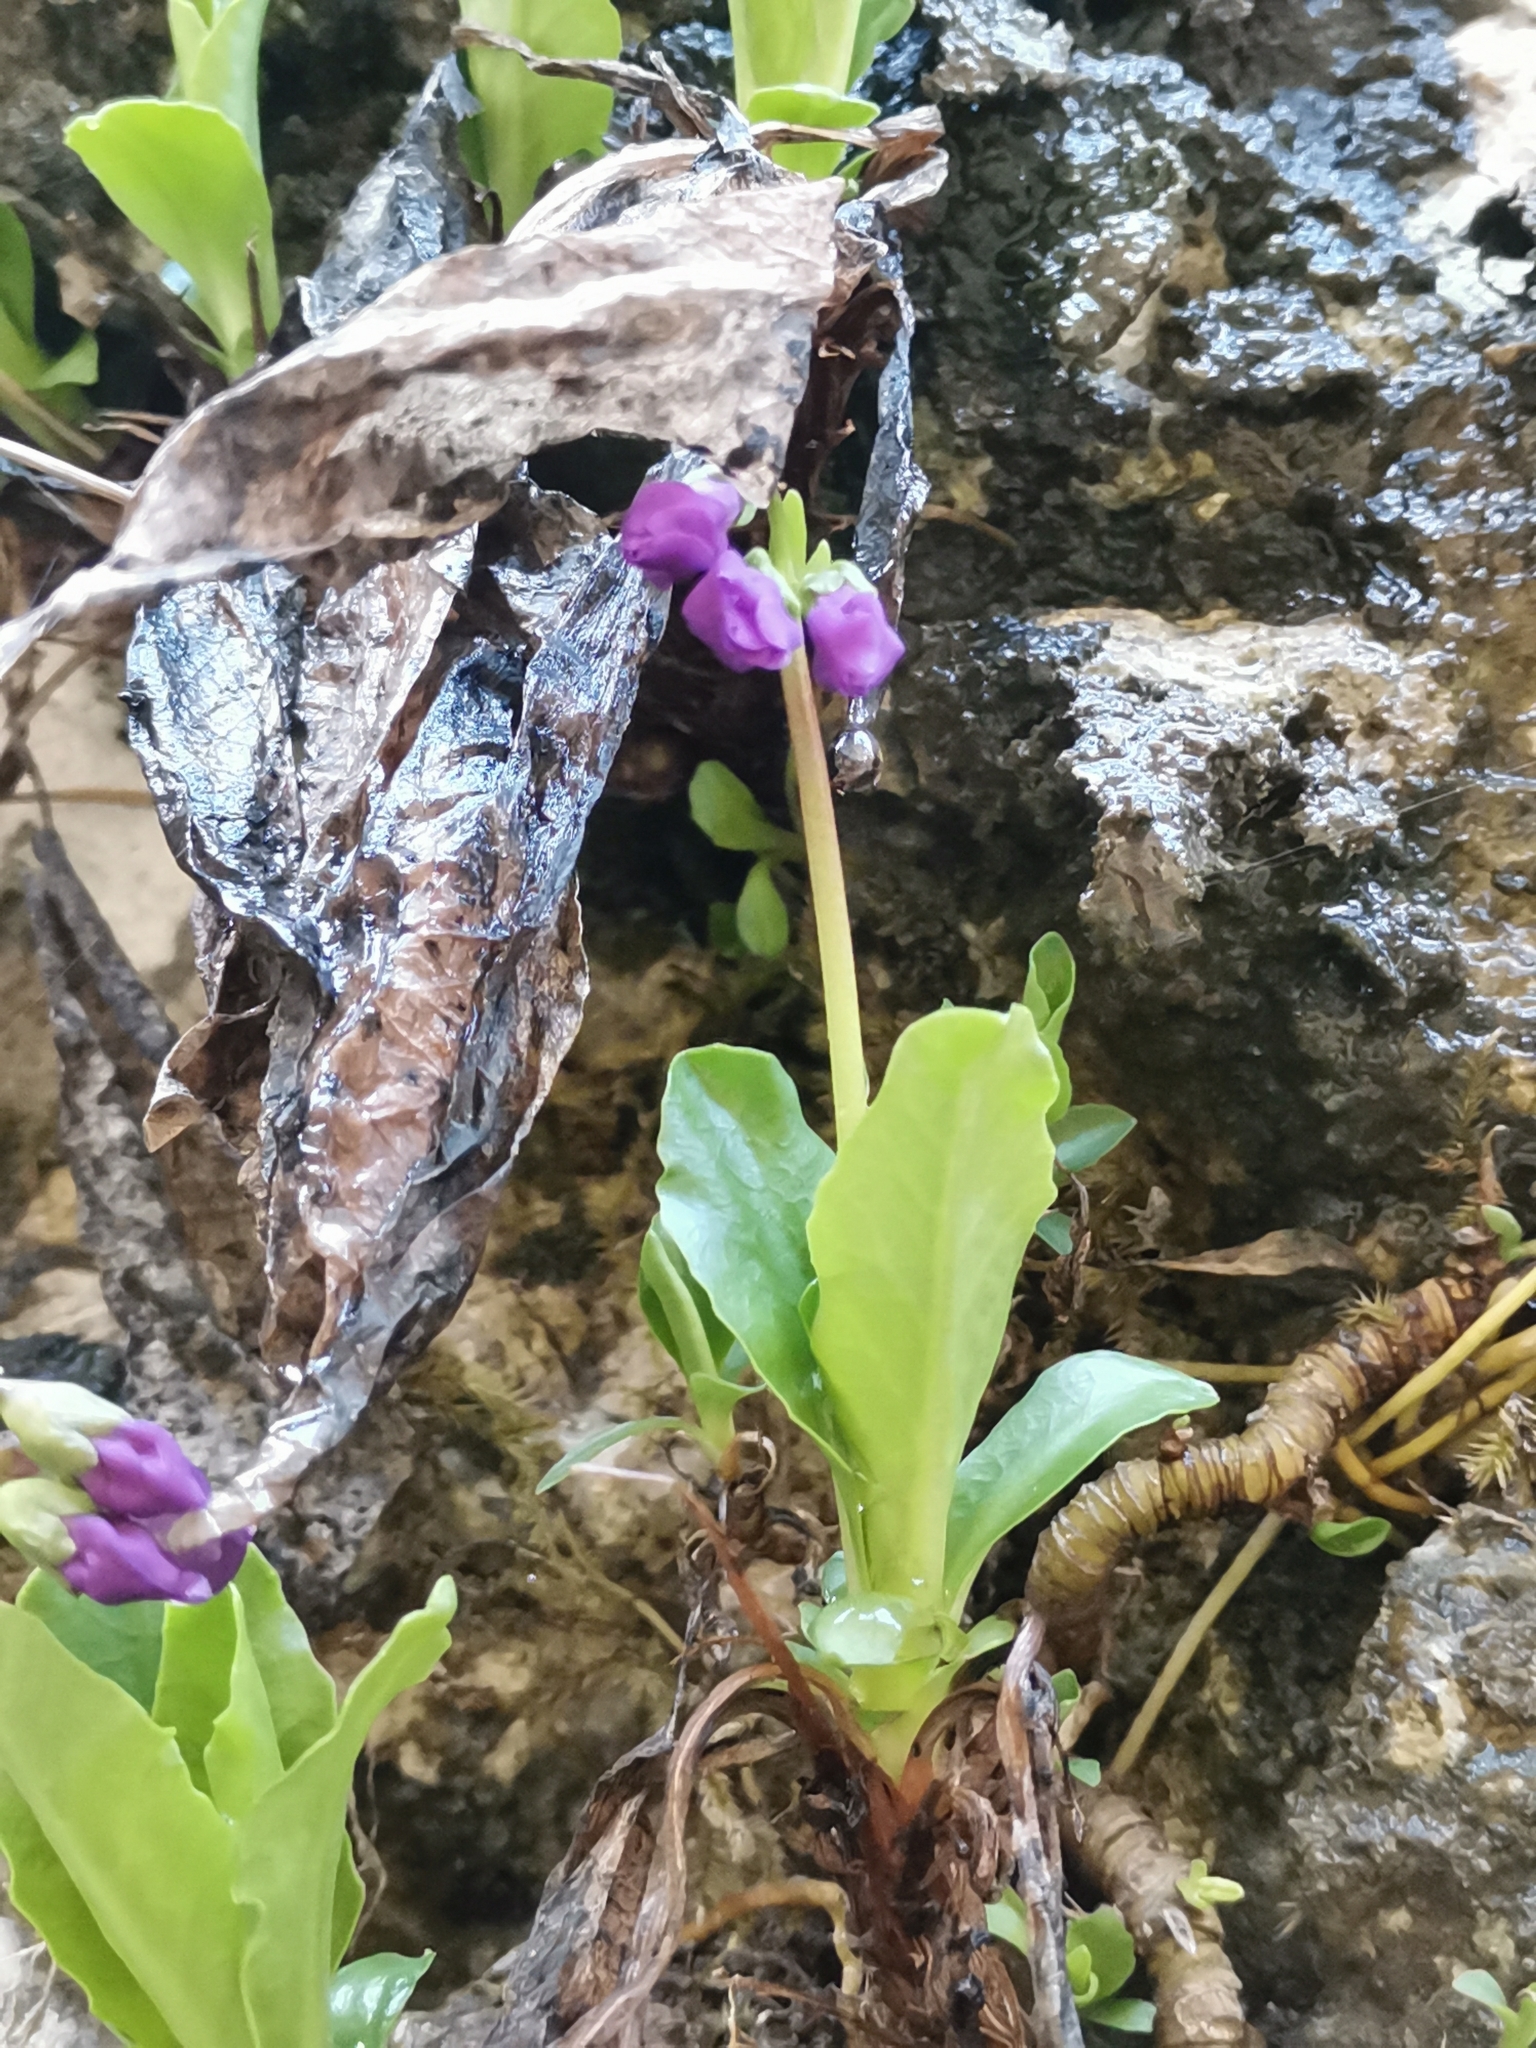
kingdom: Plantae
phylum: Tracheophyta
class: Magnoliopsida
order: Ericales
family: Primulaceae
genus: Primula
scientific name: Primula carniolica
